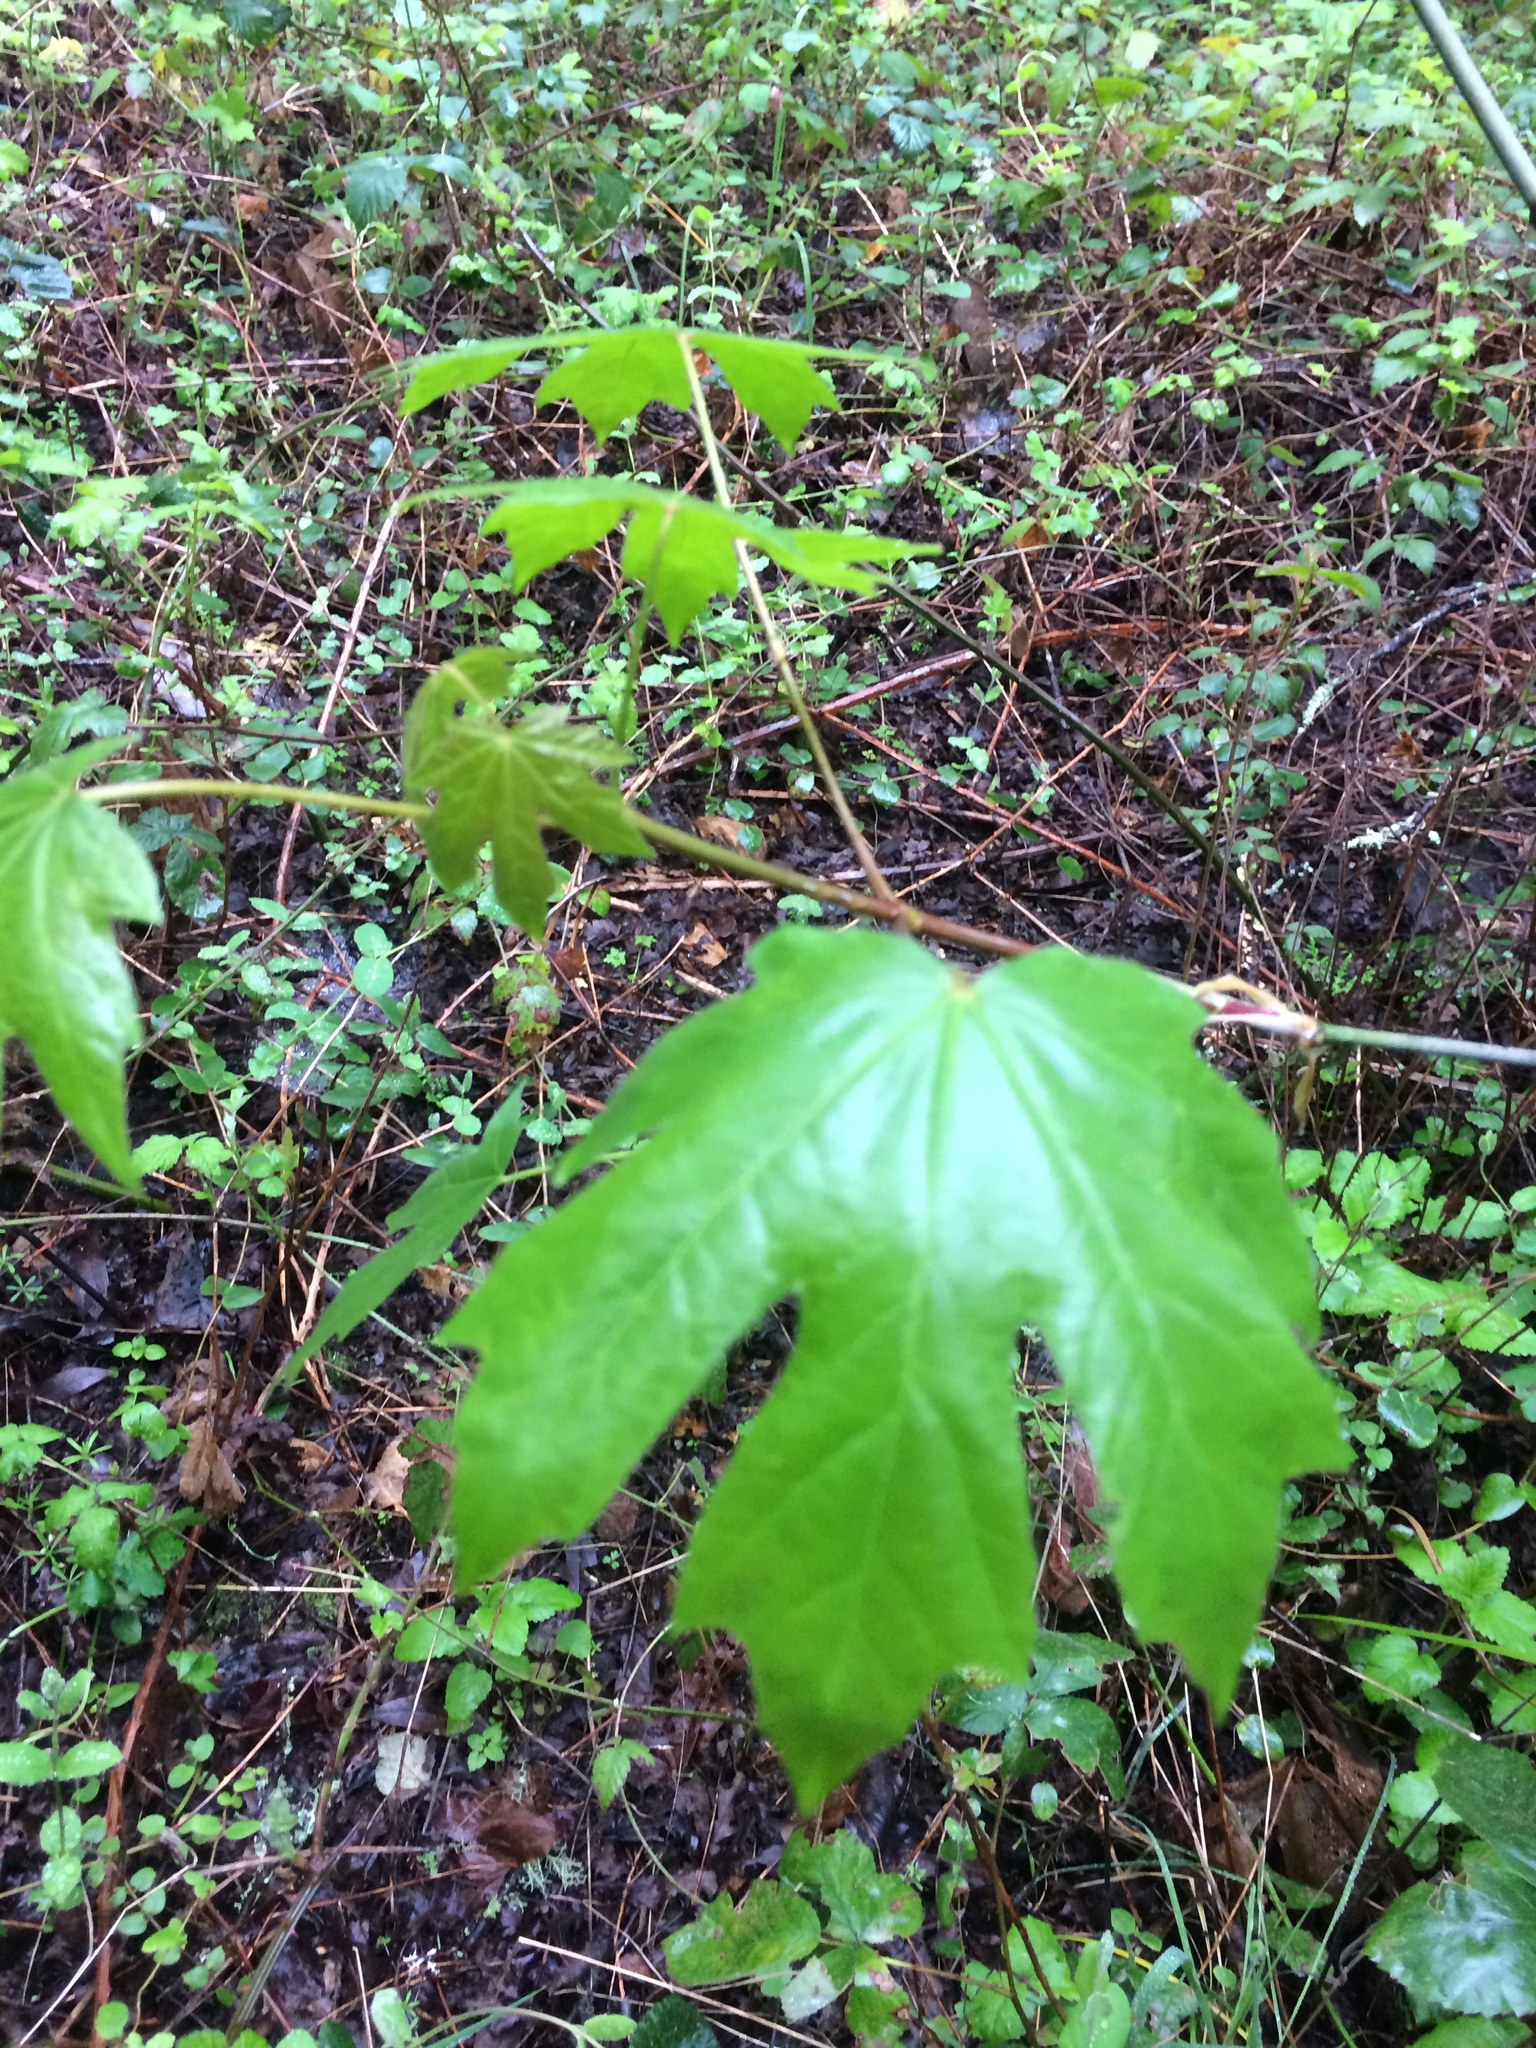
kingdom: Plantae
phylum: Tracheophyta
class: Magnoliopsida
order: Sapindales
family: Sapindaceae
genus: Acer
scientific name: Acer macrophyllum
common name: Oregon maple
